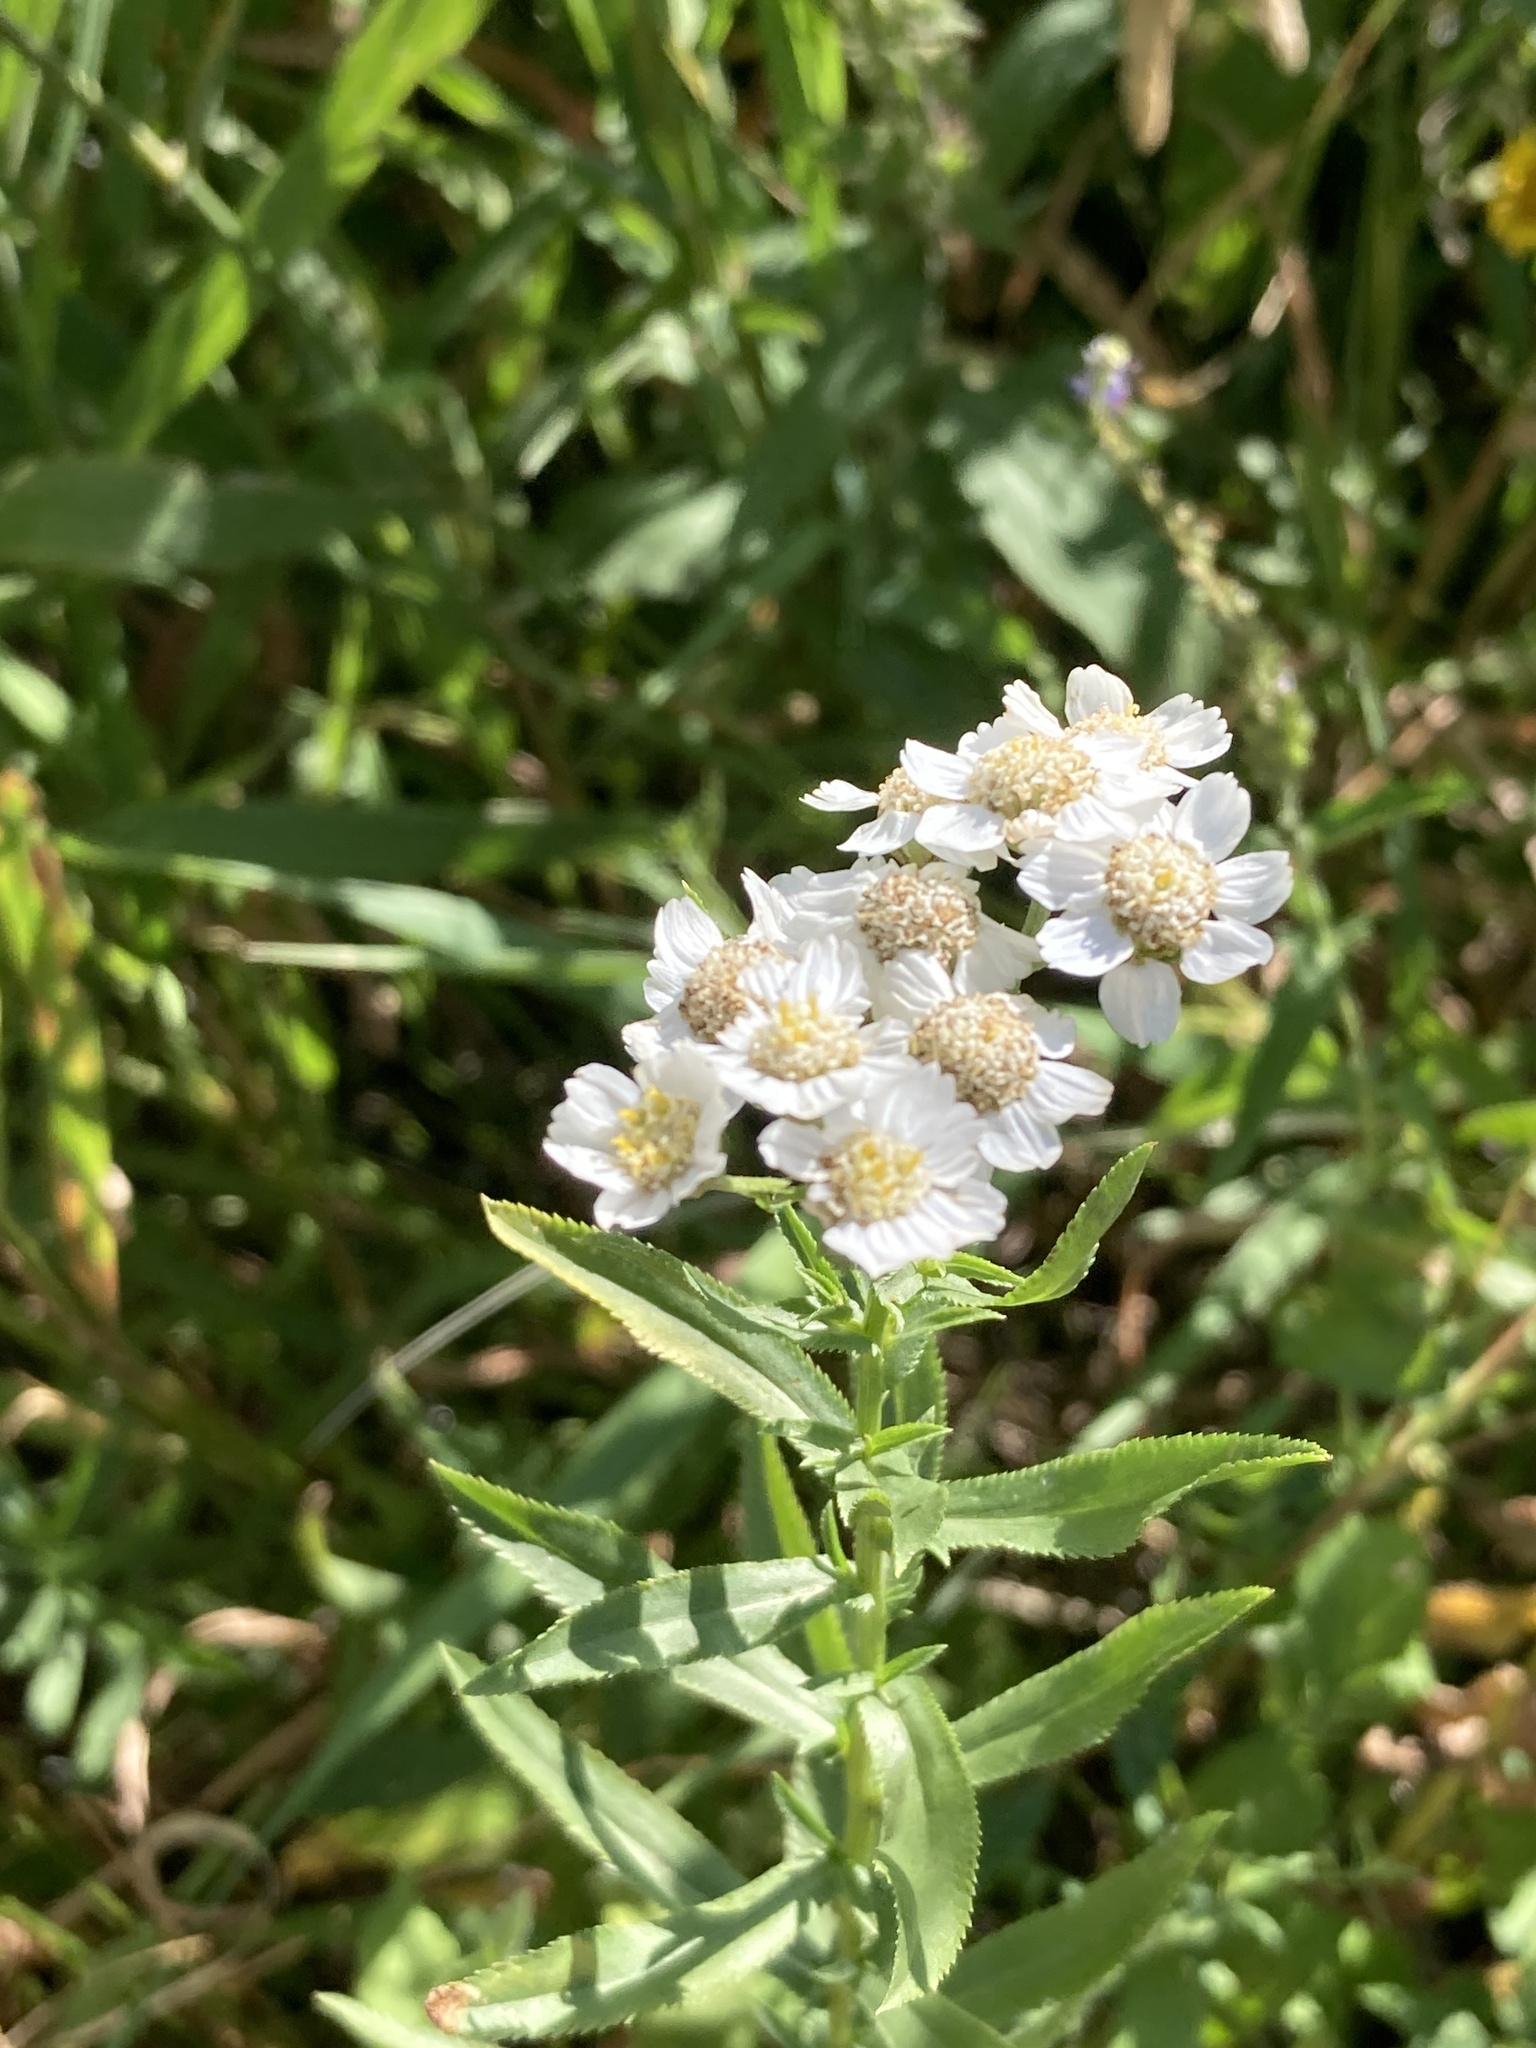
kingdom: Plantae
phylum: Tracheophyta
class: Magnoliopsida
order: Asterales
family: Asteraceae
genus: Achillea
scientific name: Achillea salicifolia
